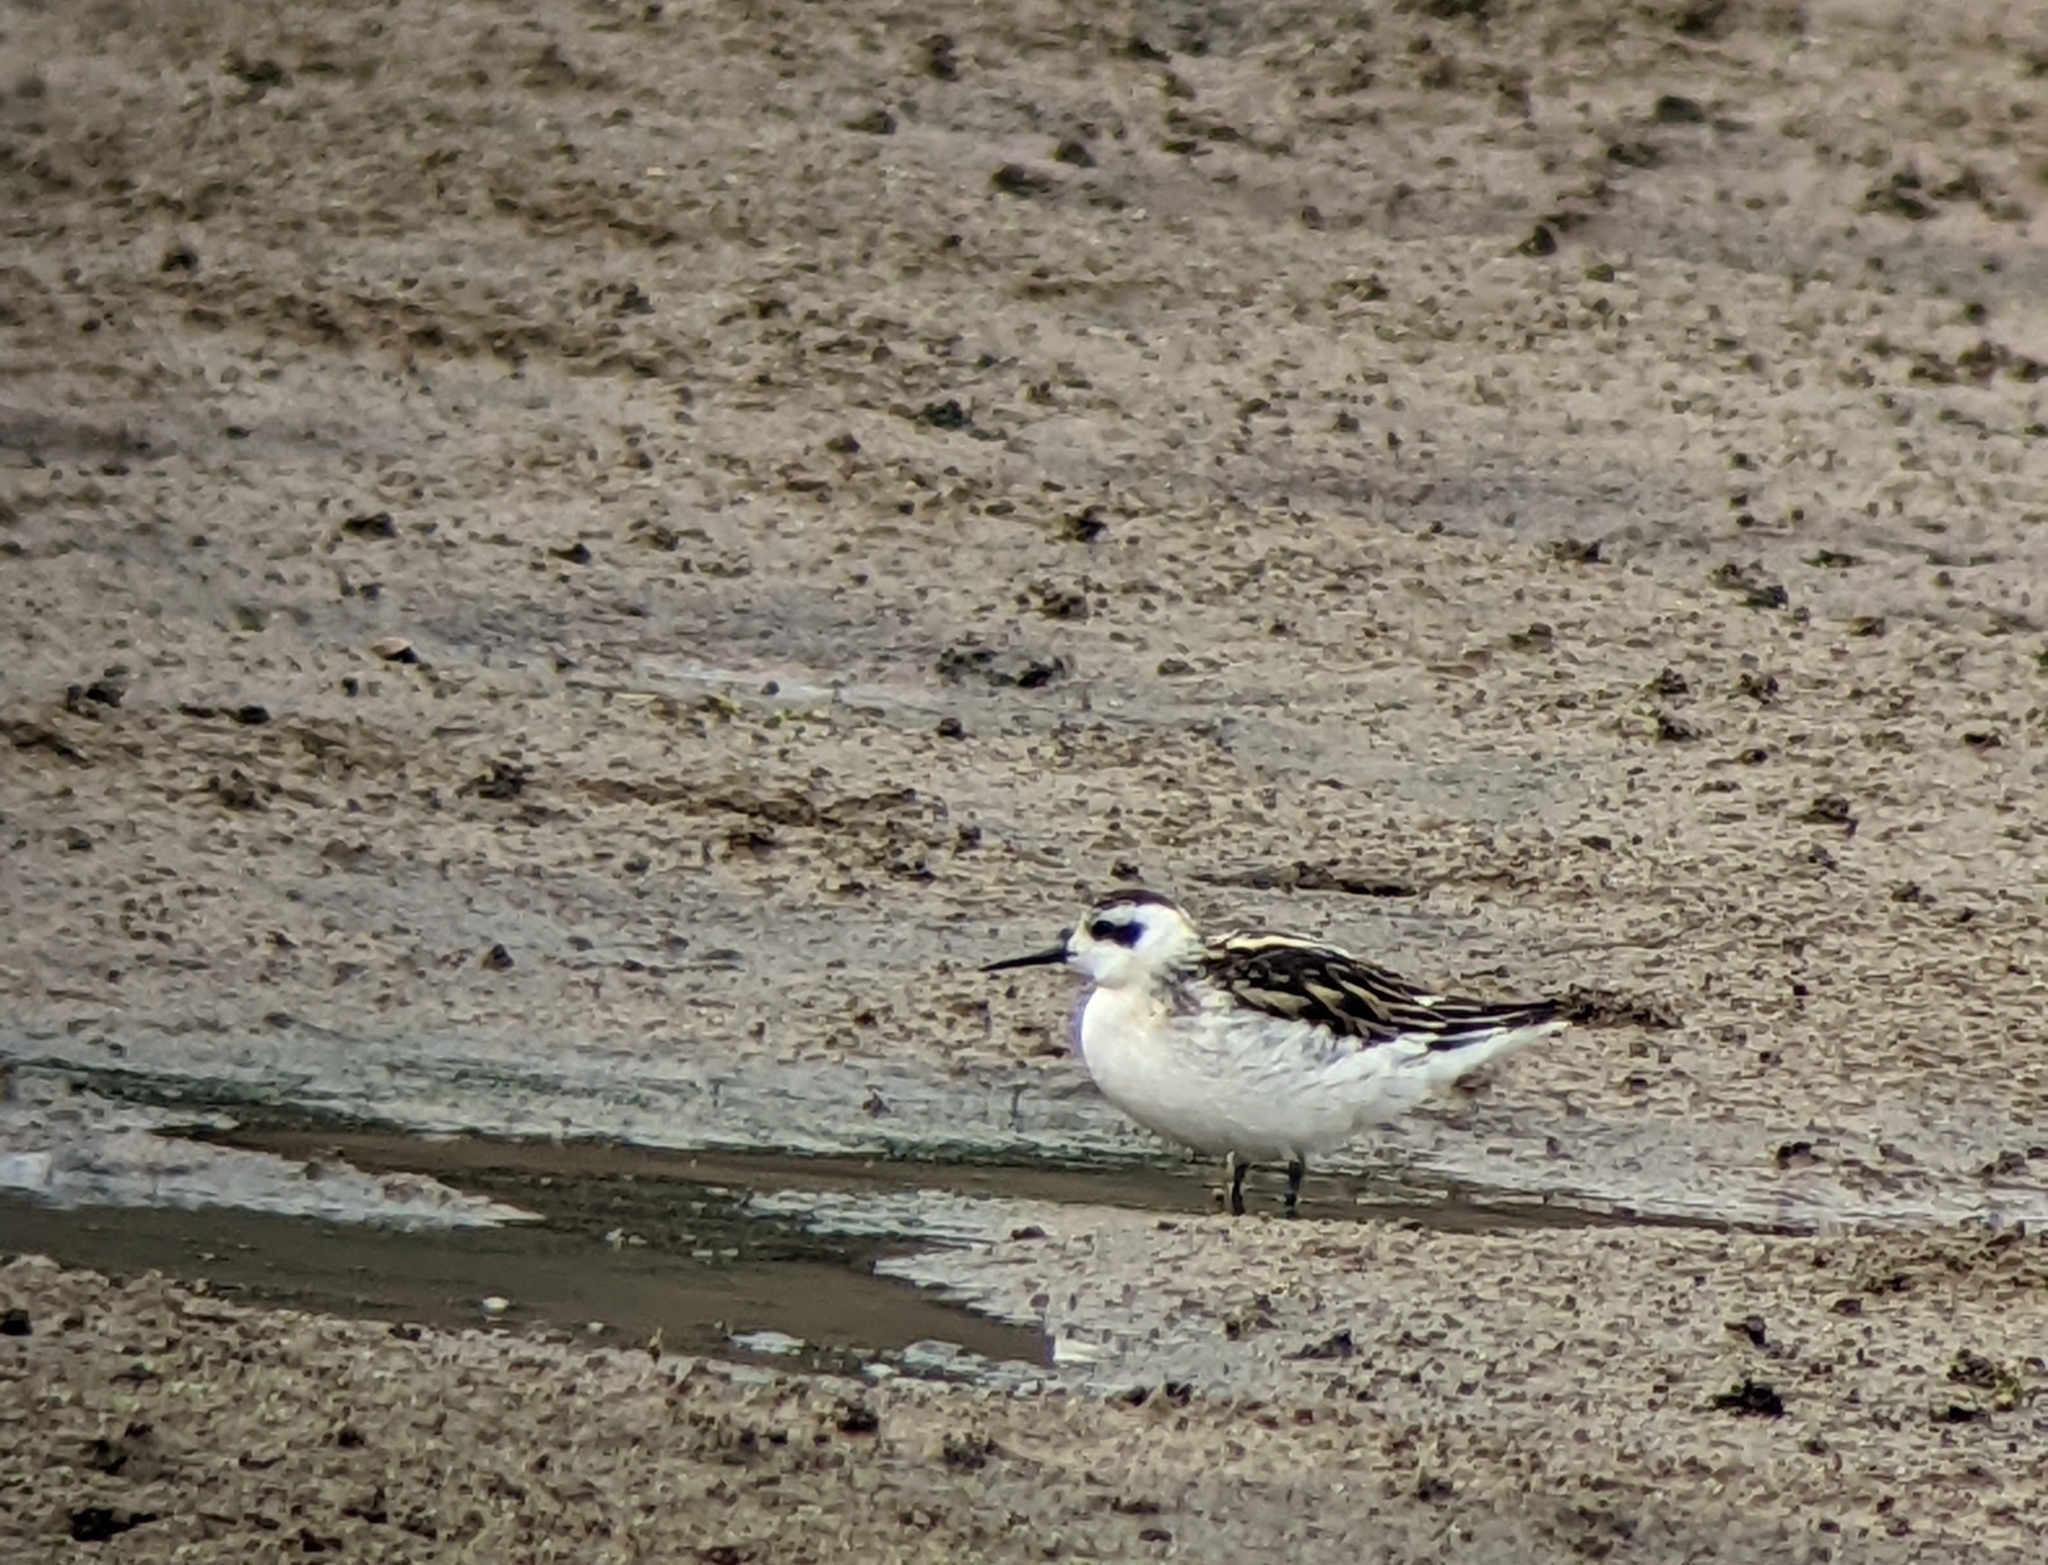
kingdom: Animalia
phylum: Chordata
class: Aves
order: Charadriiformes
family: Scolopacidae
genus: Phalaropus
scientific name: Phalaropus lobatus
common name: Red-necked phalarope
